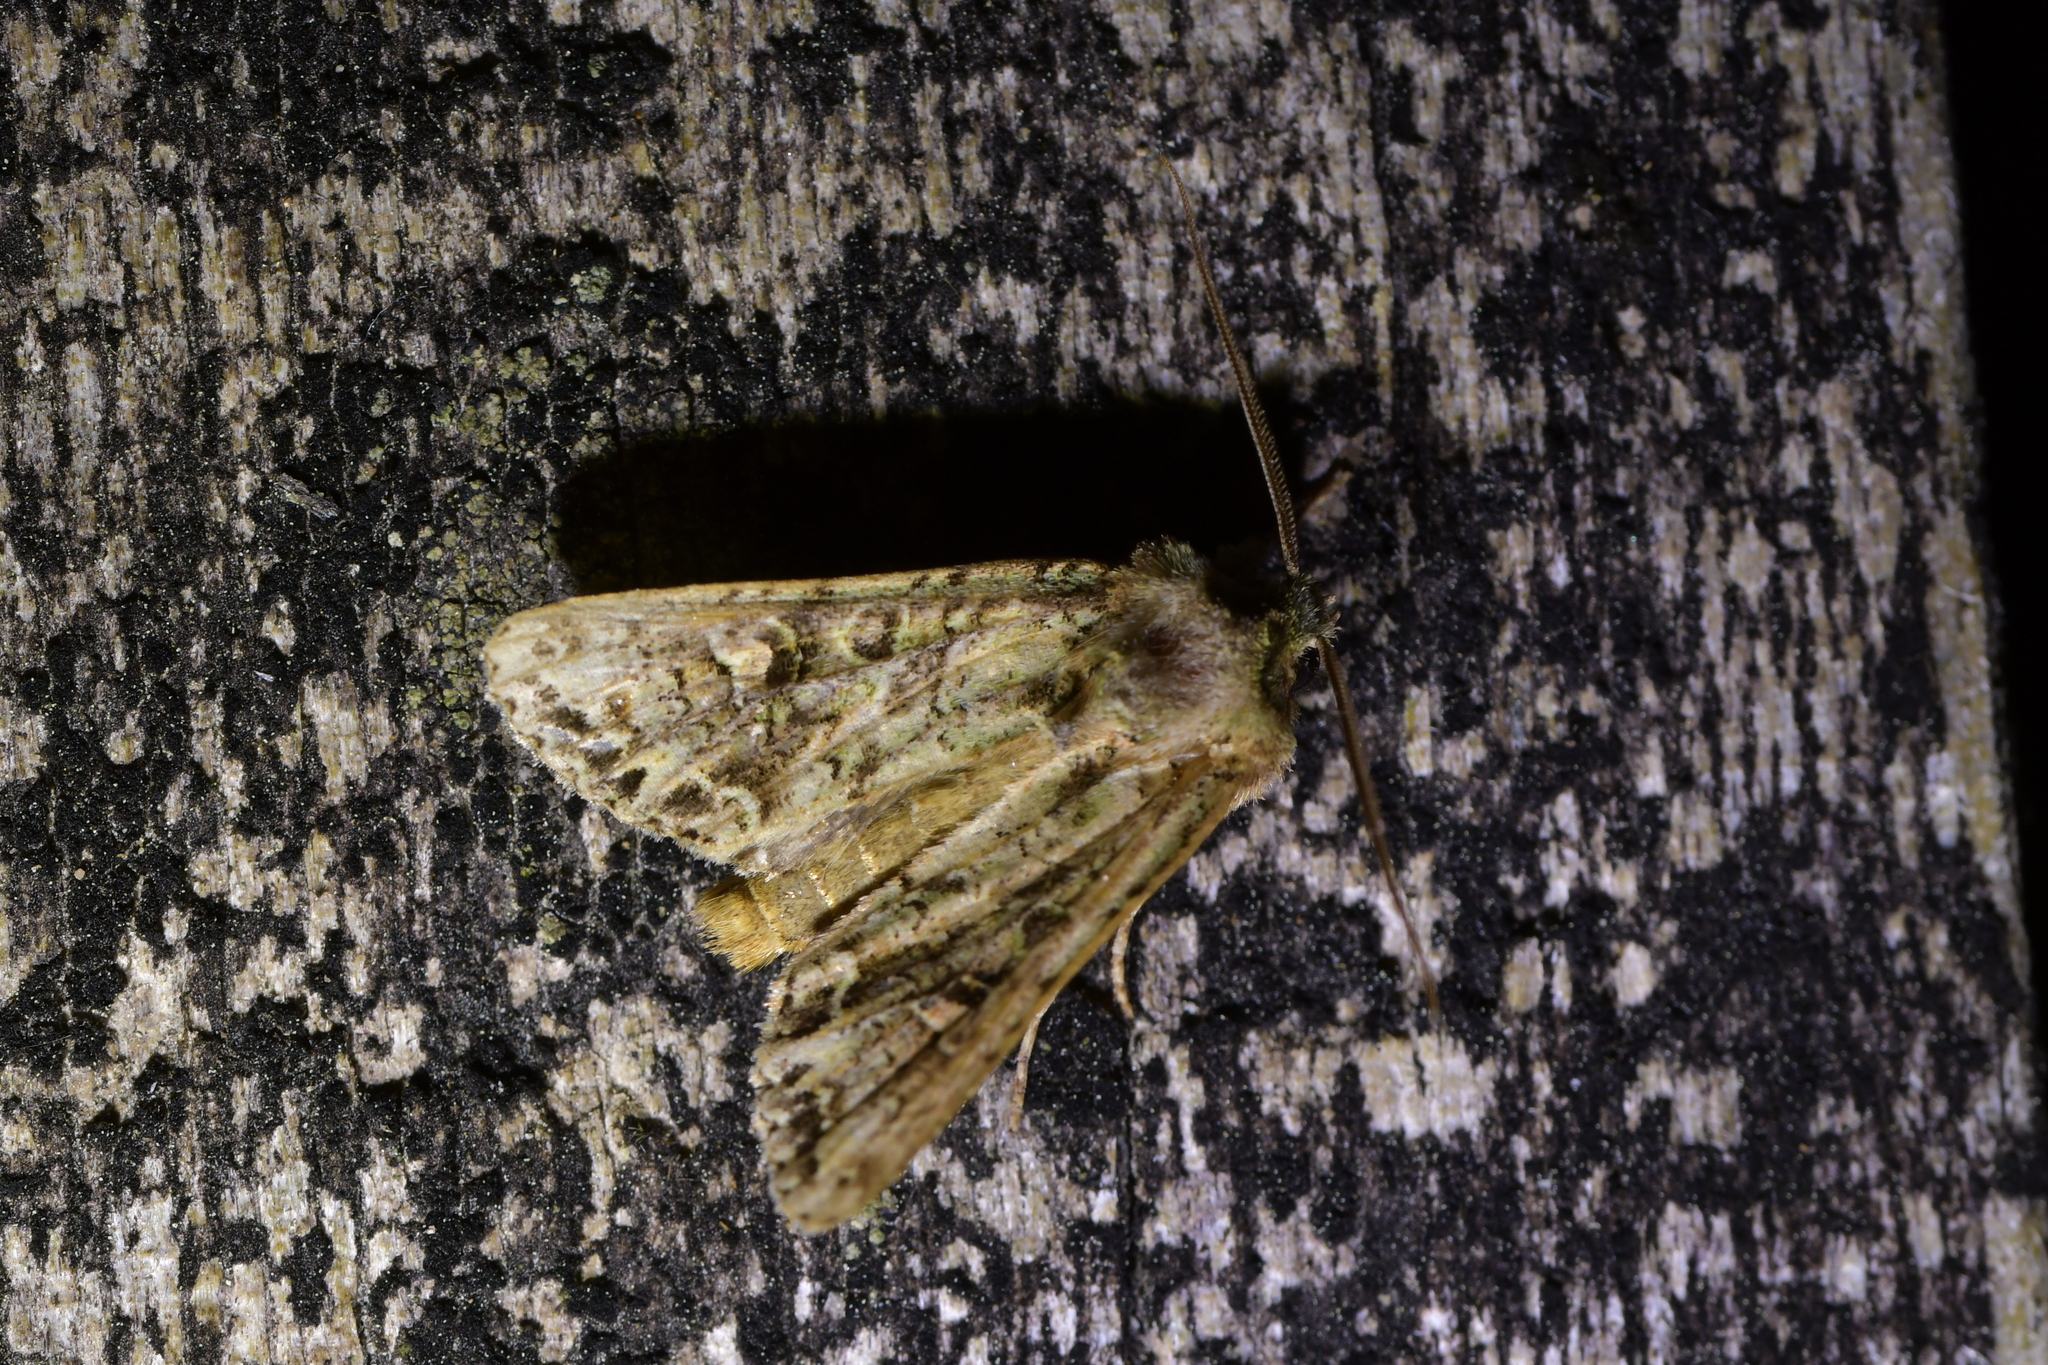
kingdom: Animalia
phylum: Arthropoda
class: Insecta
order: Lepidoptera
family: Noctuidae
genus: Ichneutica
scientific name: Ichneutica
